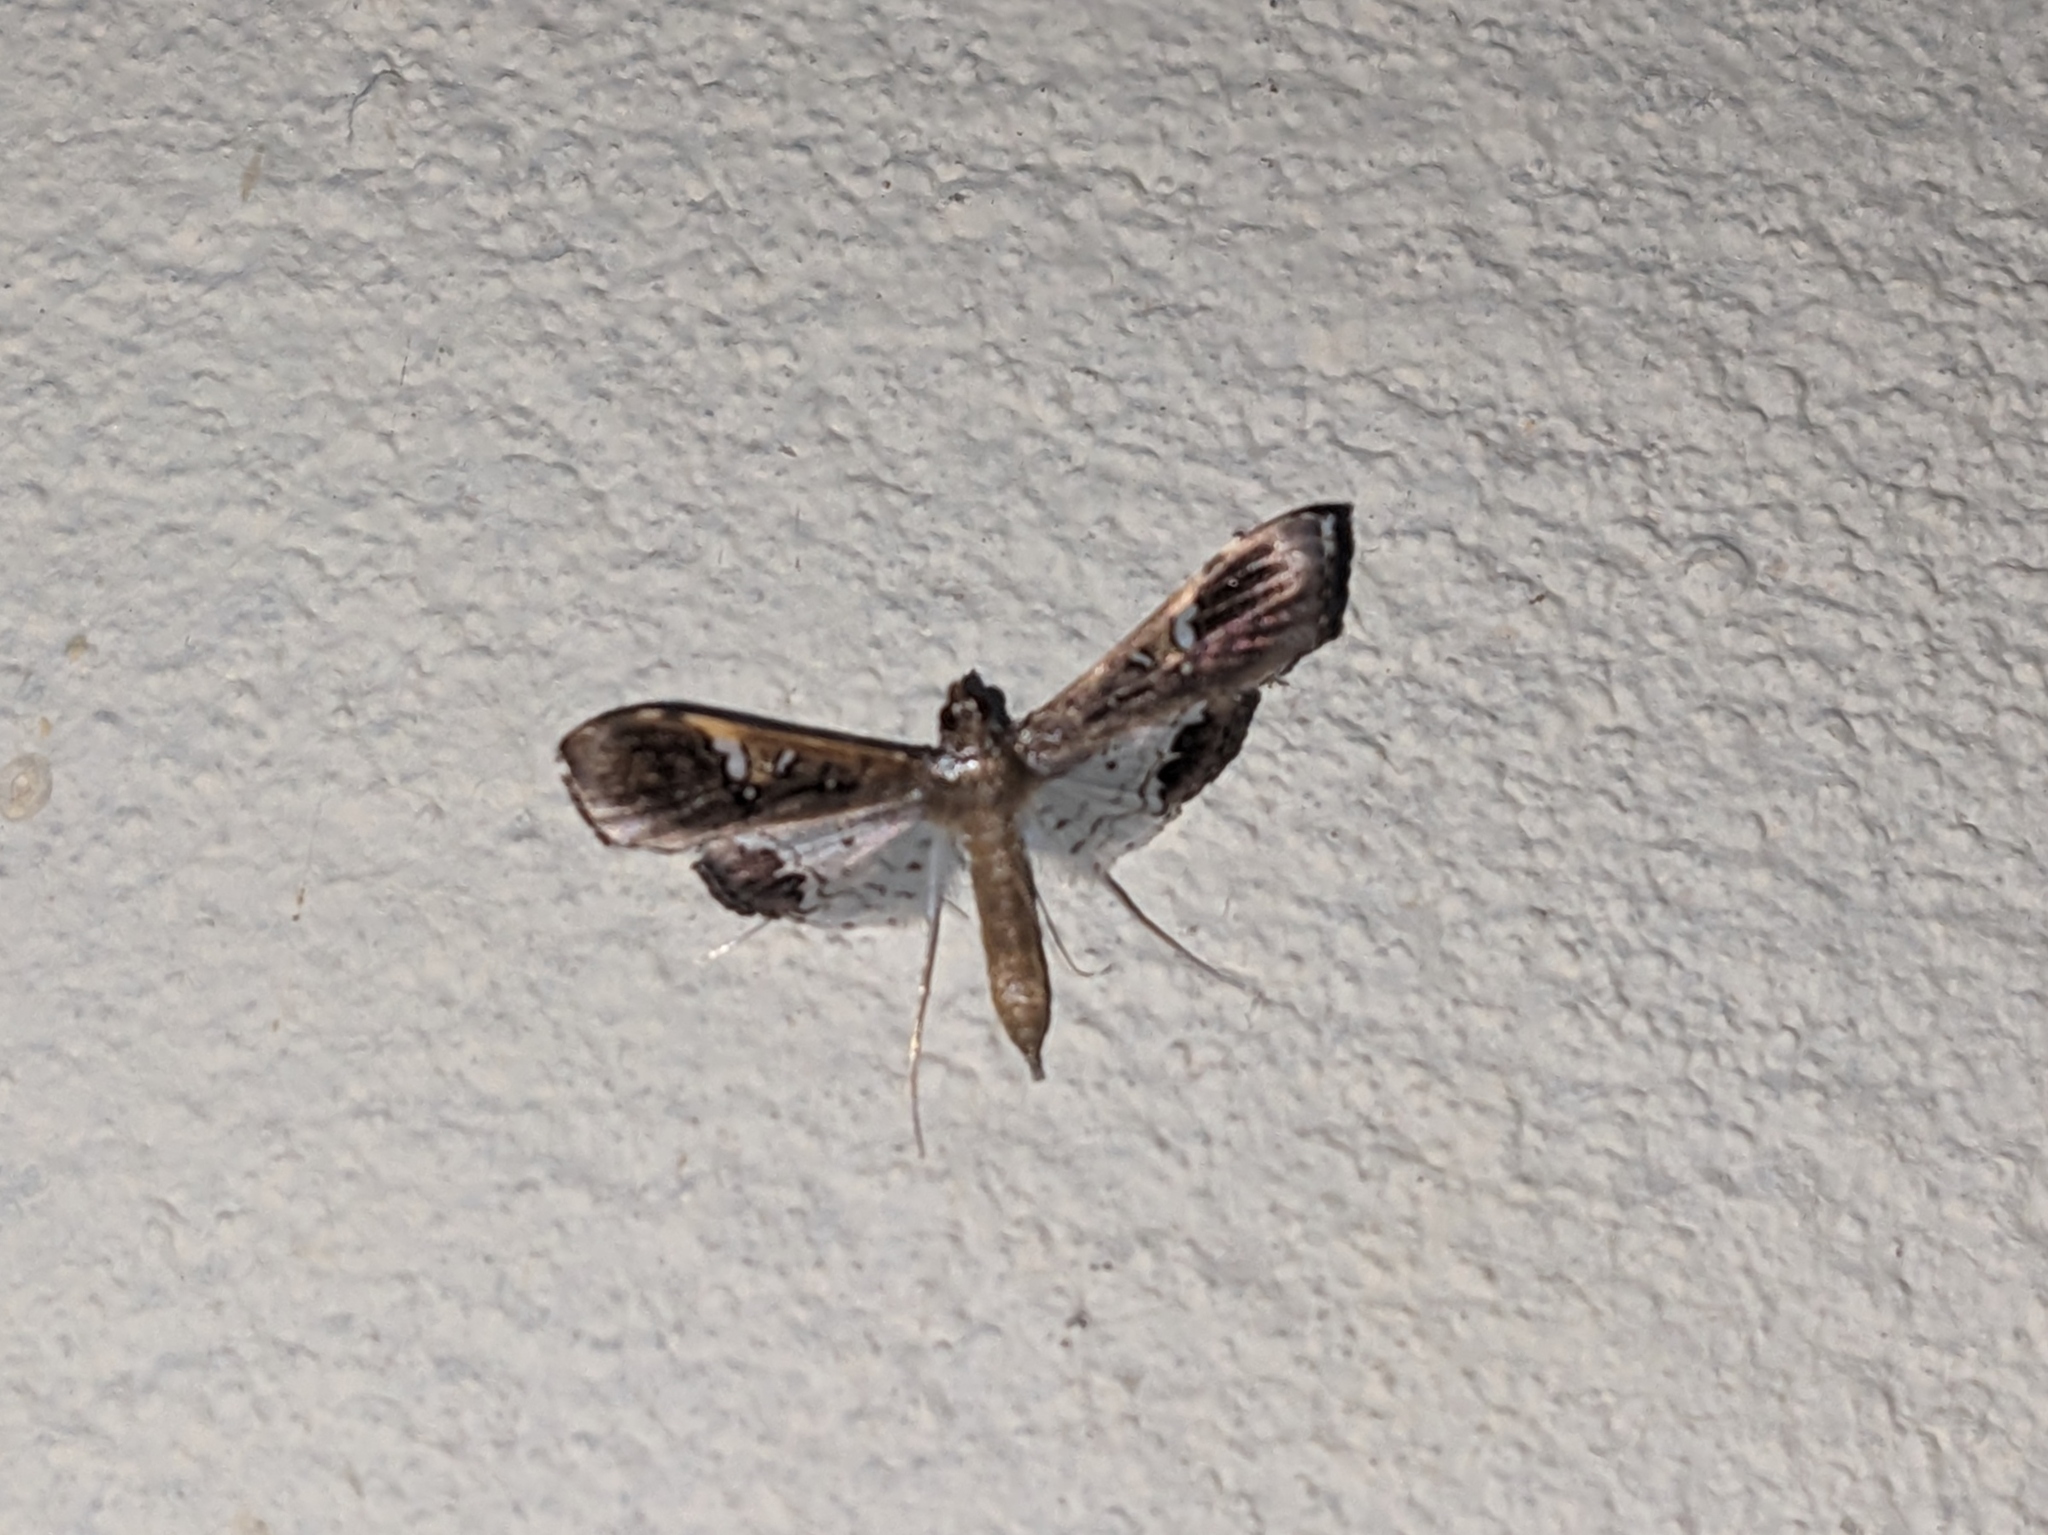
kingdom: Animalia
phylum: Arthropoda
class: Insecta
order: Lepidoptera
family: Crambidae
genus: Maruca
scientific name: Maruca vitrata
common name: Maruca pod borer
